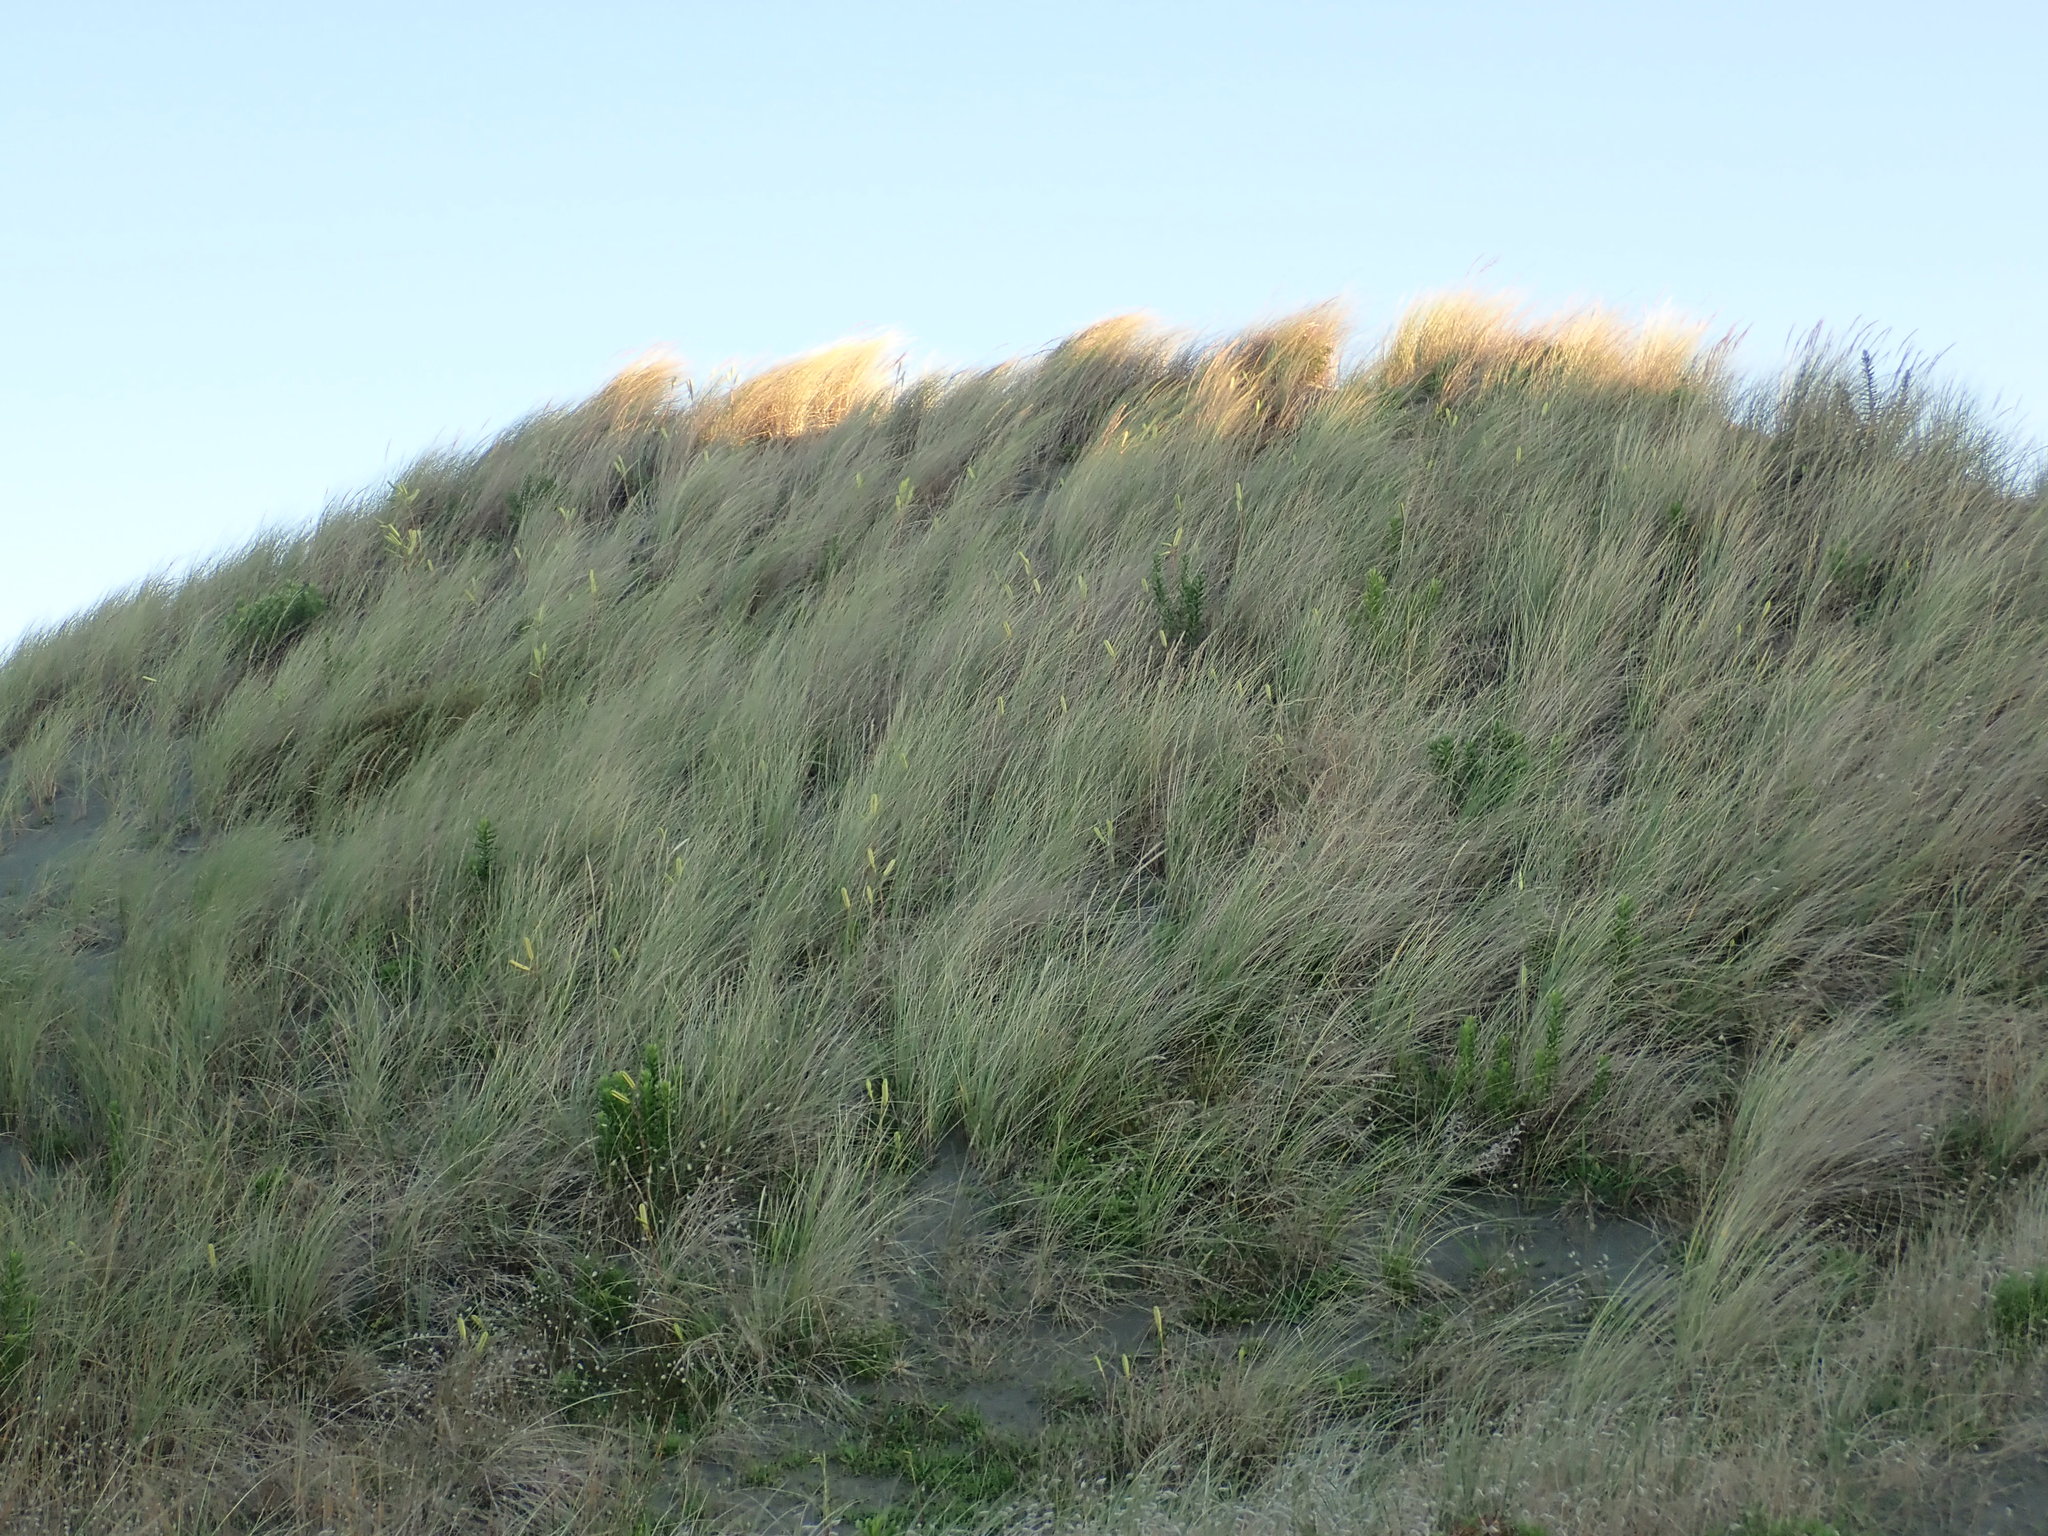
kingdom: Plantae
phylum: Tracheophyta
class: Liliopsida
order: Liliales
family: Liliaceae
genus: Lilium
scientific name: Lilium formosanum
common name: Formosa lily
